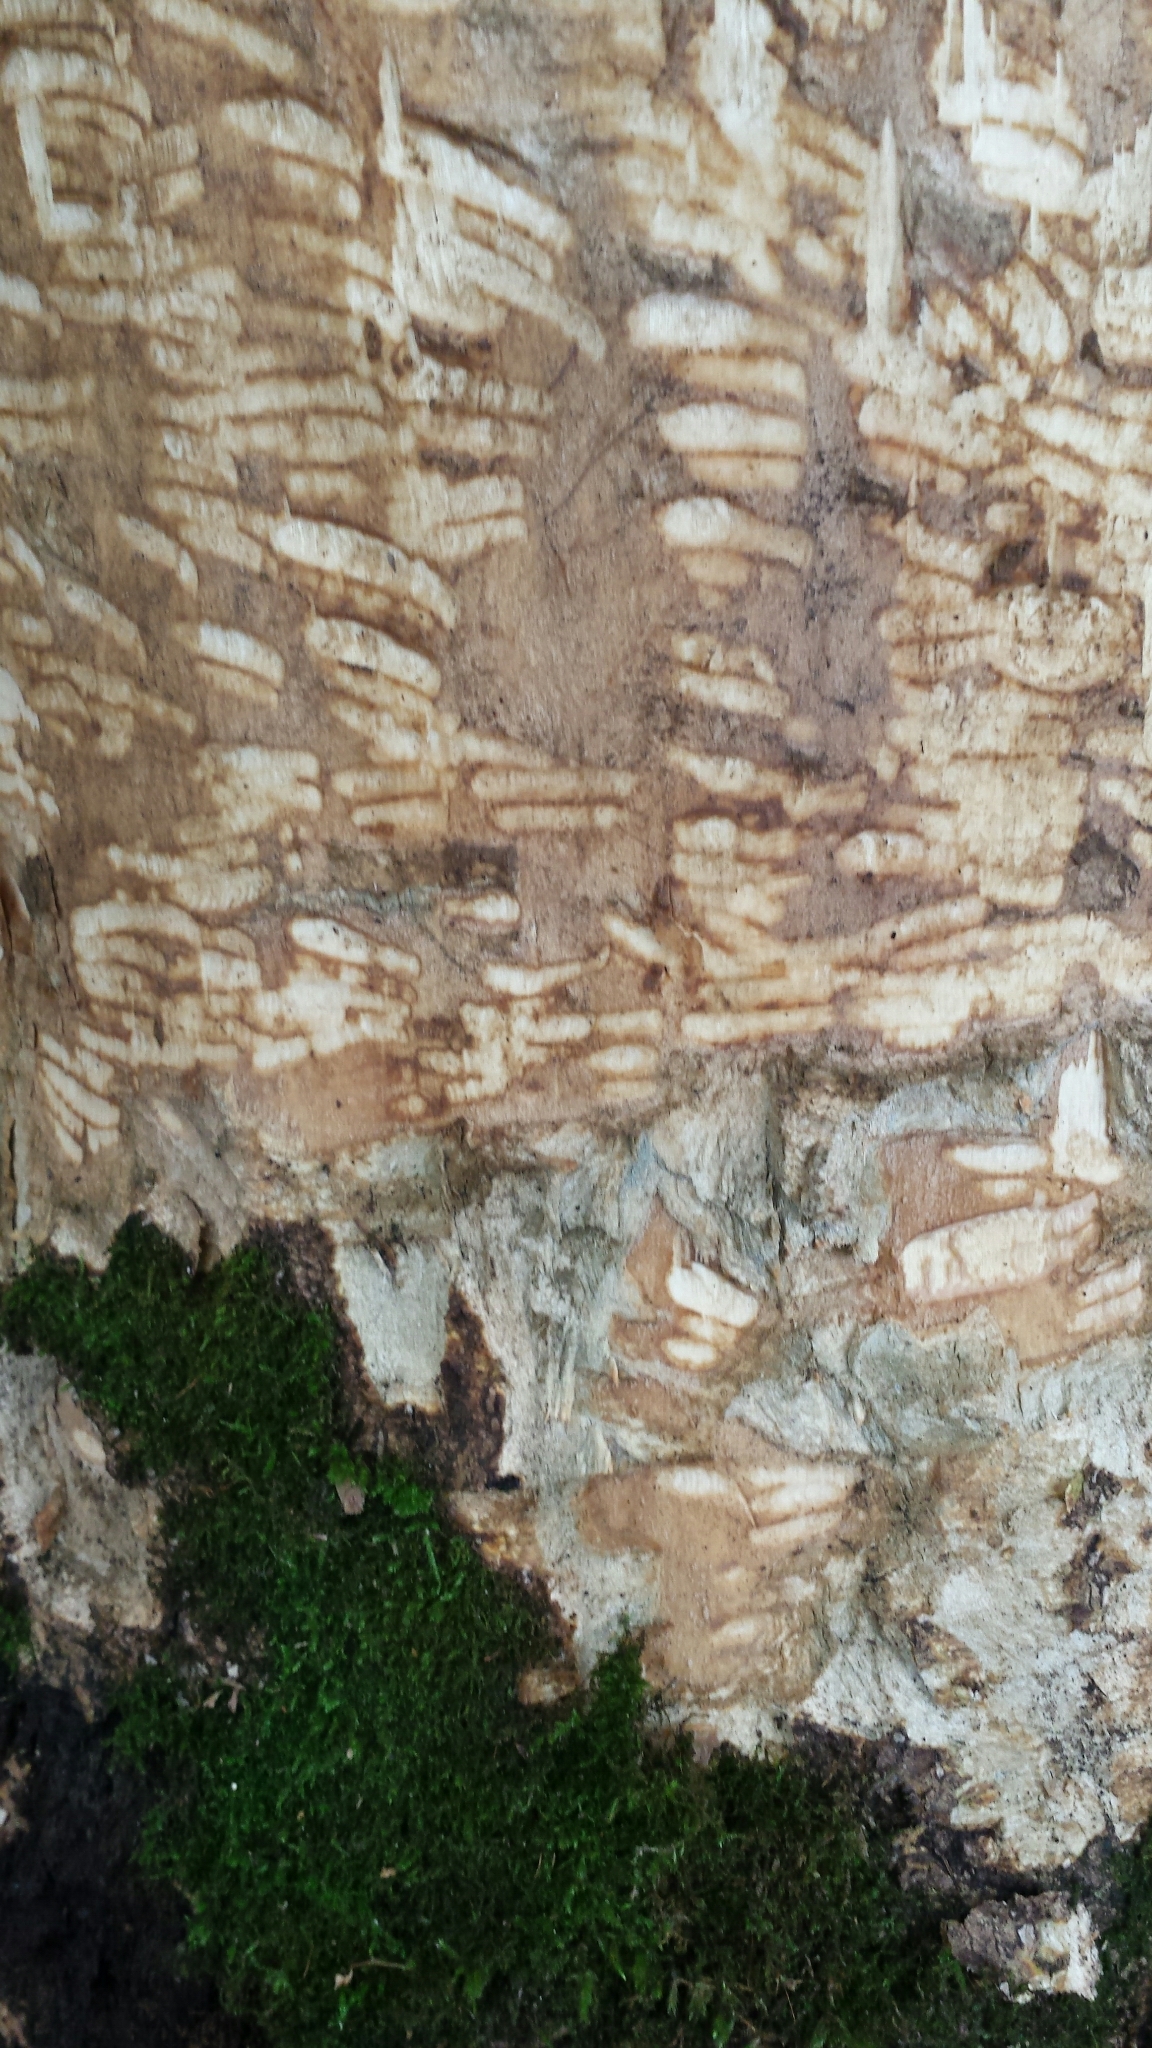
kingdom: Animalia
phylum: Chordata
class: Mammalia
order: Rodentia
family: Erethizontidae
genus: Erethizon
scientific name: Erethizon dorsatus
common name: North american porcupine
